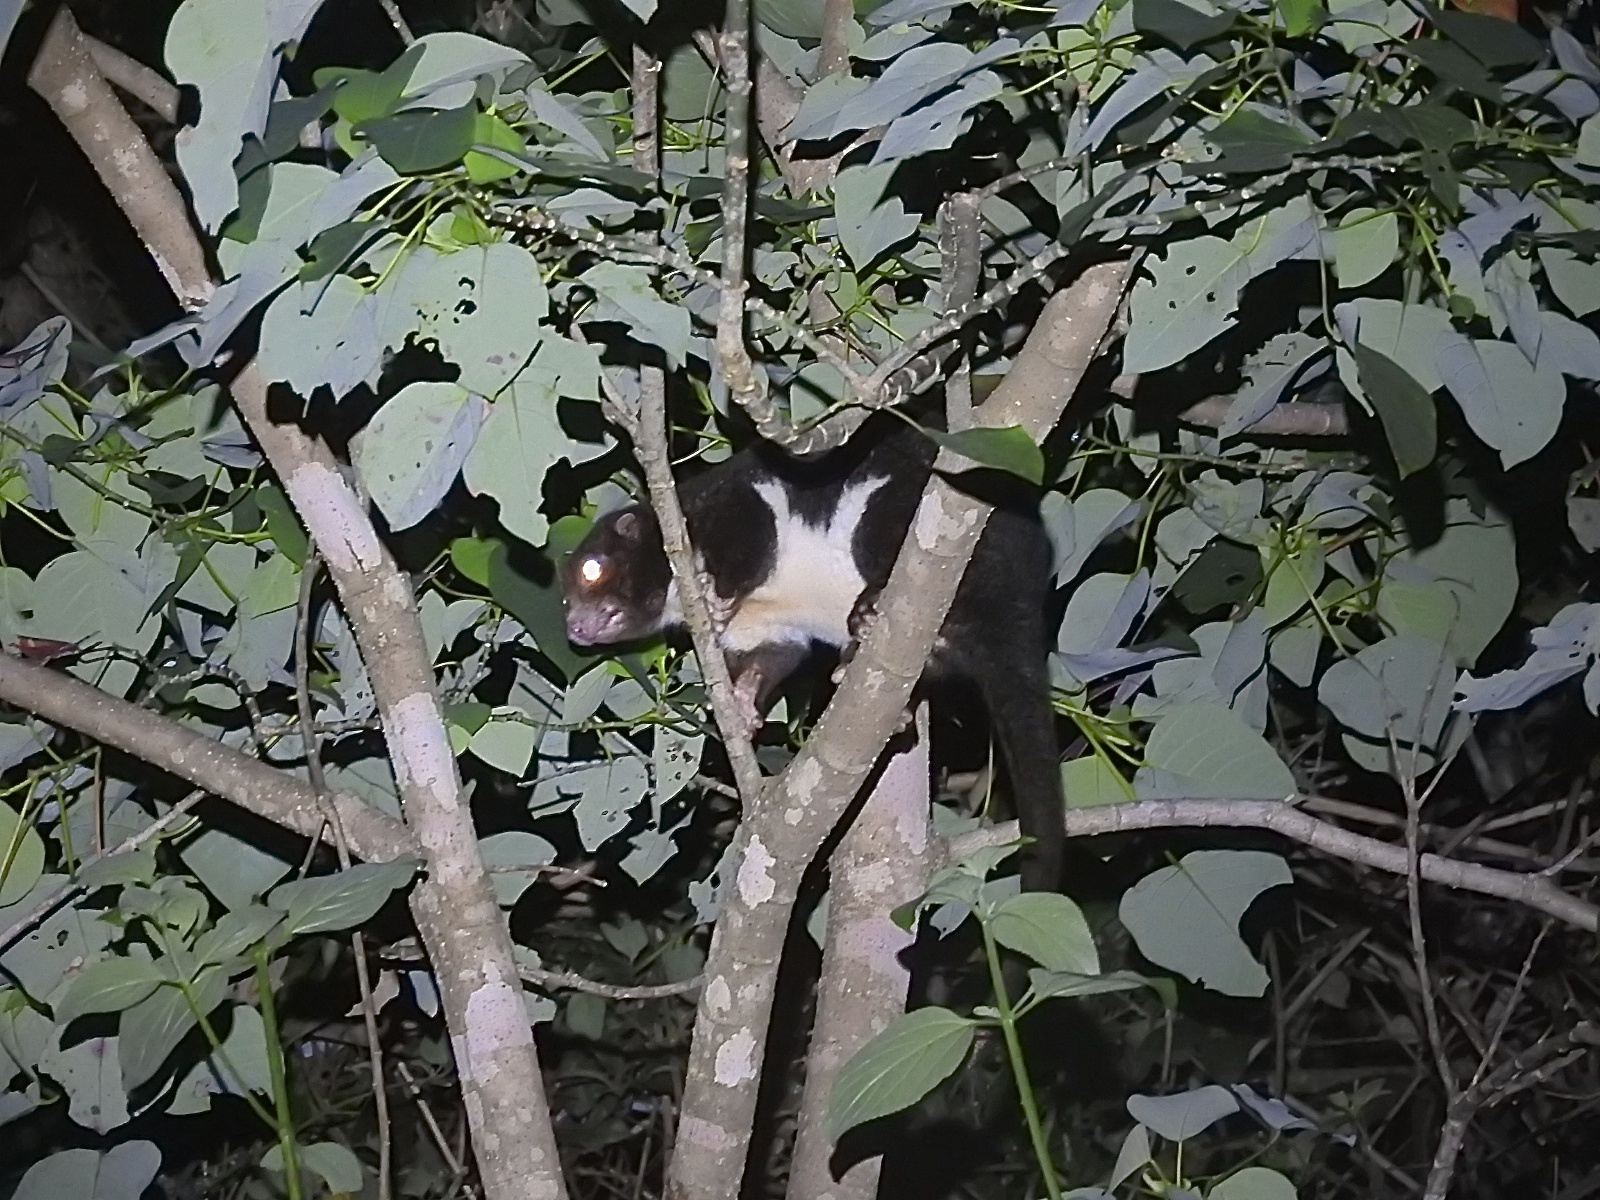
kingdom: Animalia
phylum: Chordata
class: Mammalia
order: Diprotodontia
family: Pseudocheiridae
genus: Pseudochirulus
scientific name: Pseudochirulus herbertensis
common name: Herbert river ringtail
